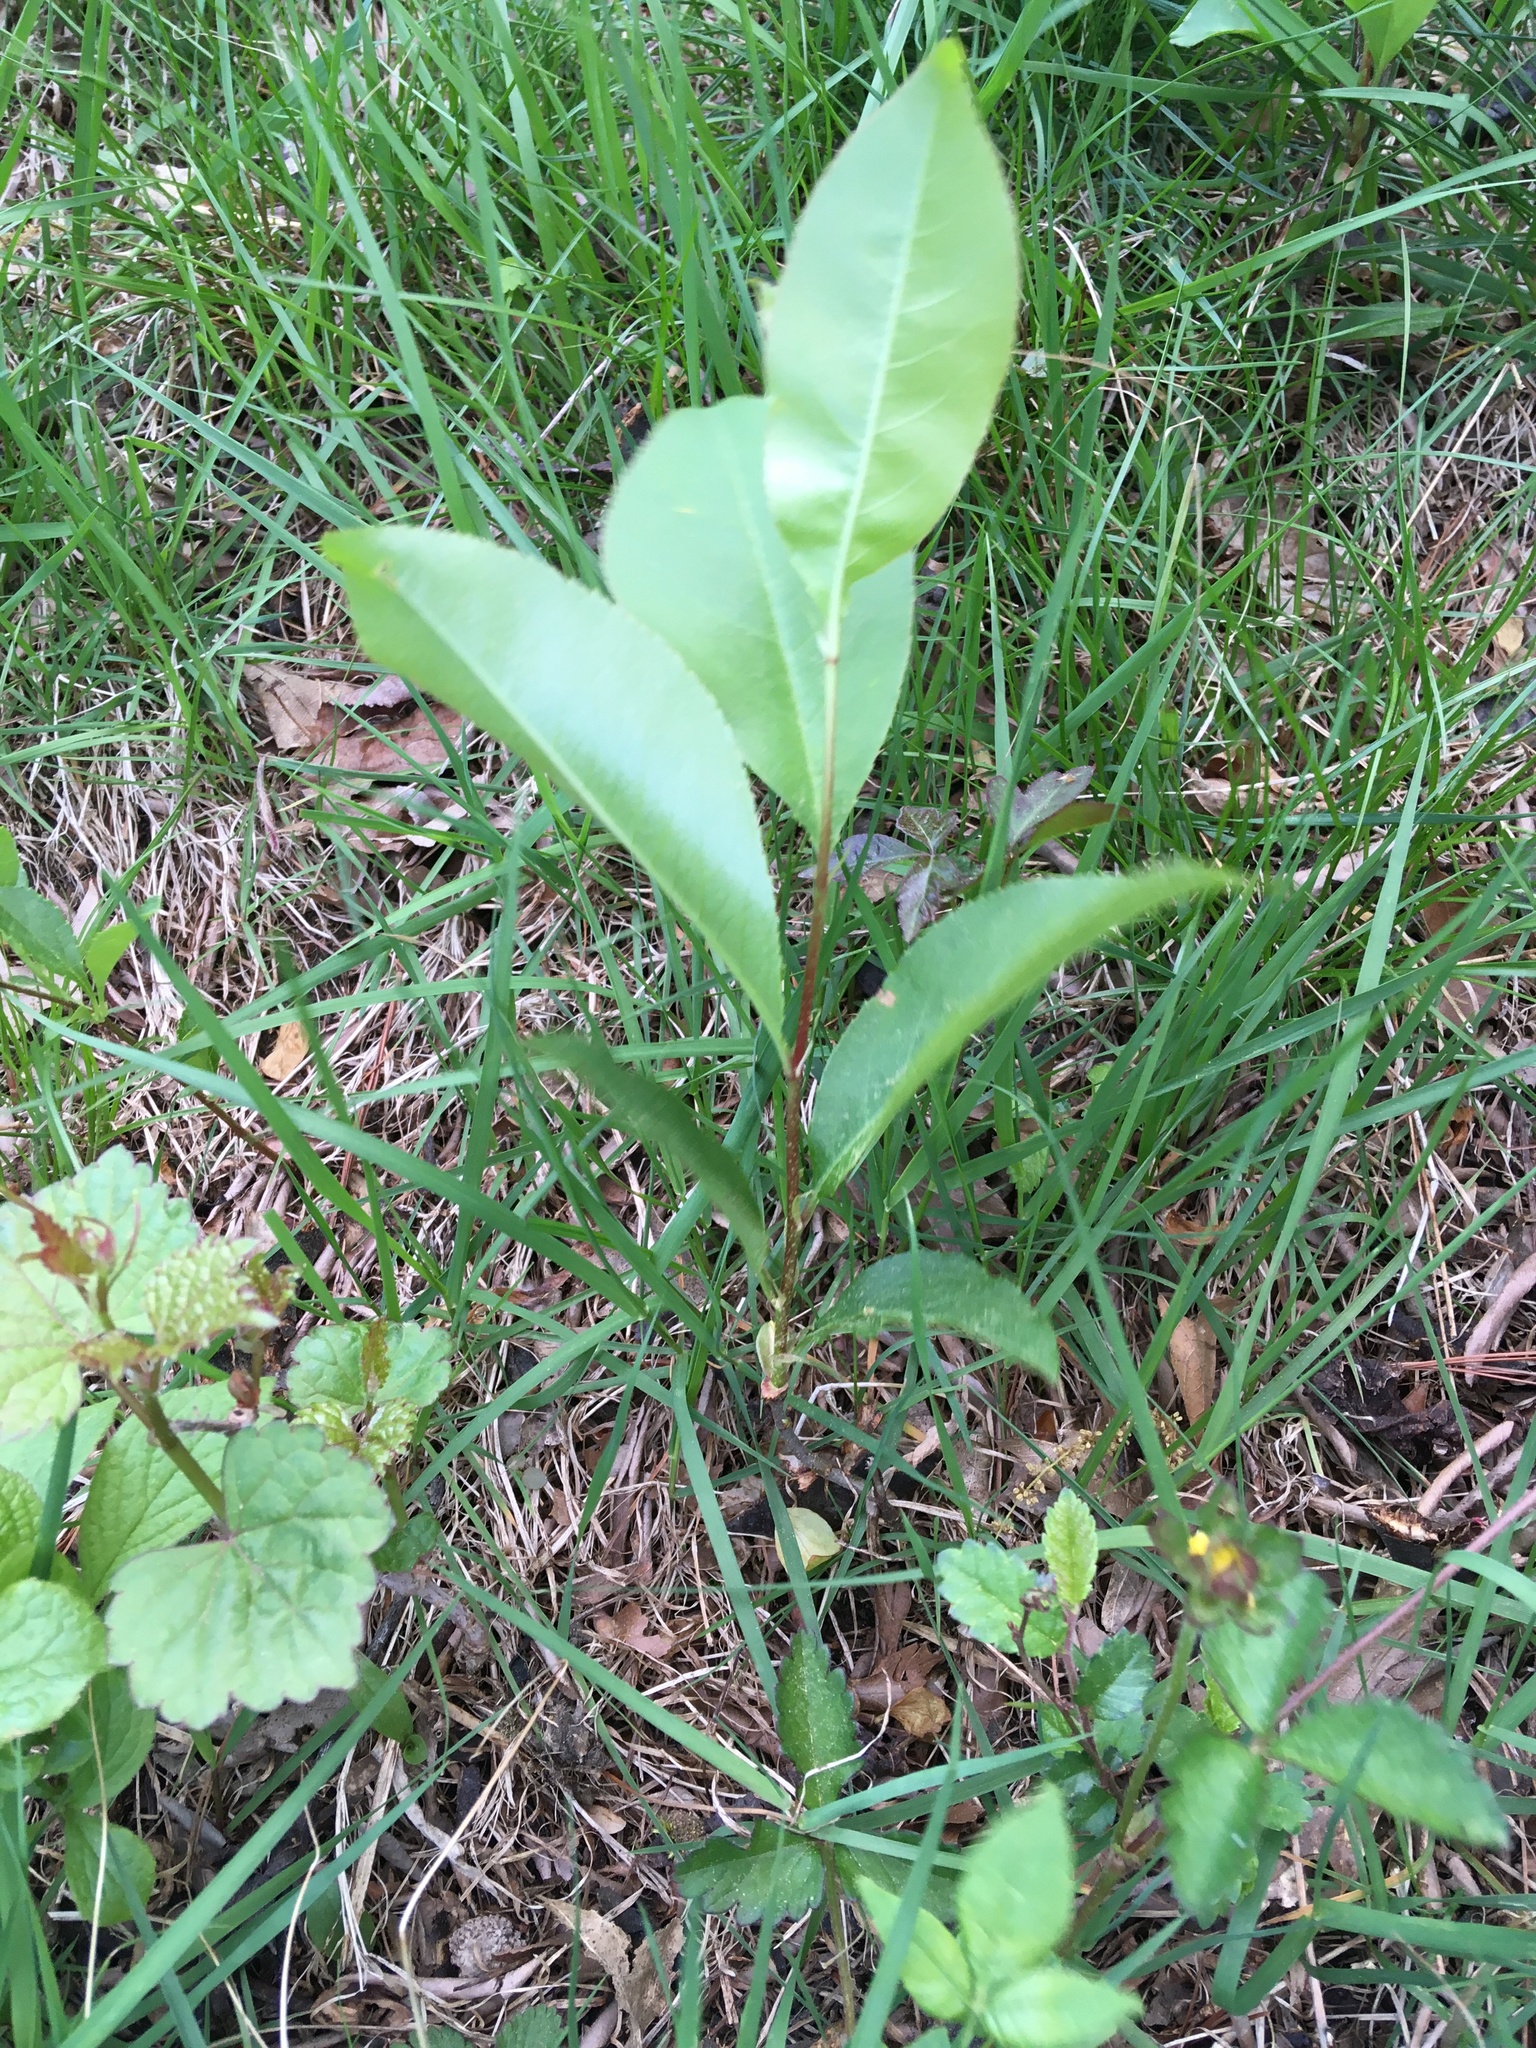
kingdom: Plantae
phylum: Tracheophyta
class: Magnoliopsida
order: Rosales
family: Rosaceae
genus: Prunus
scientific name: Prunus serotina
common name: Black cherry
